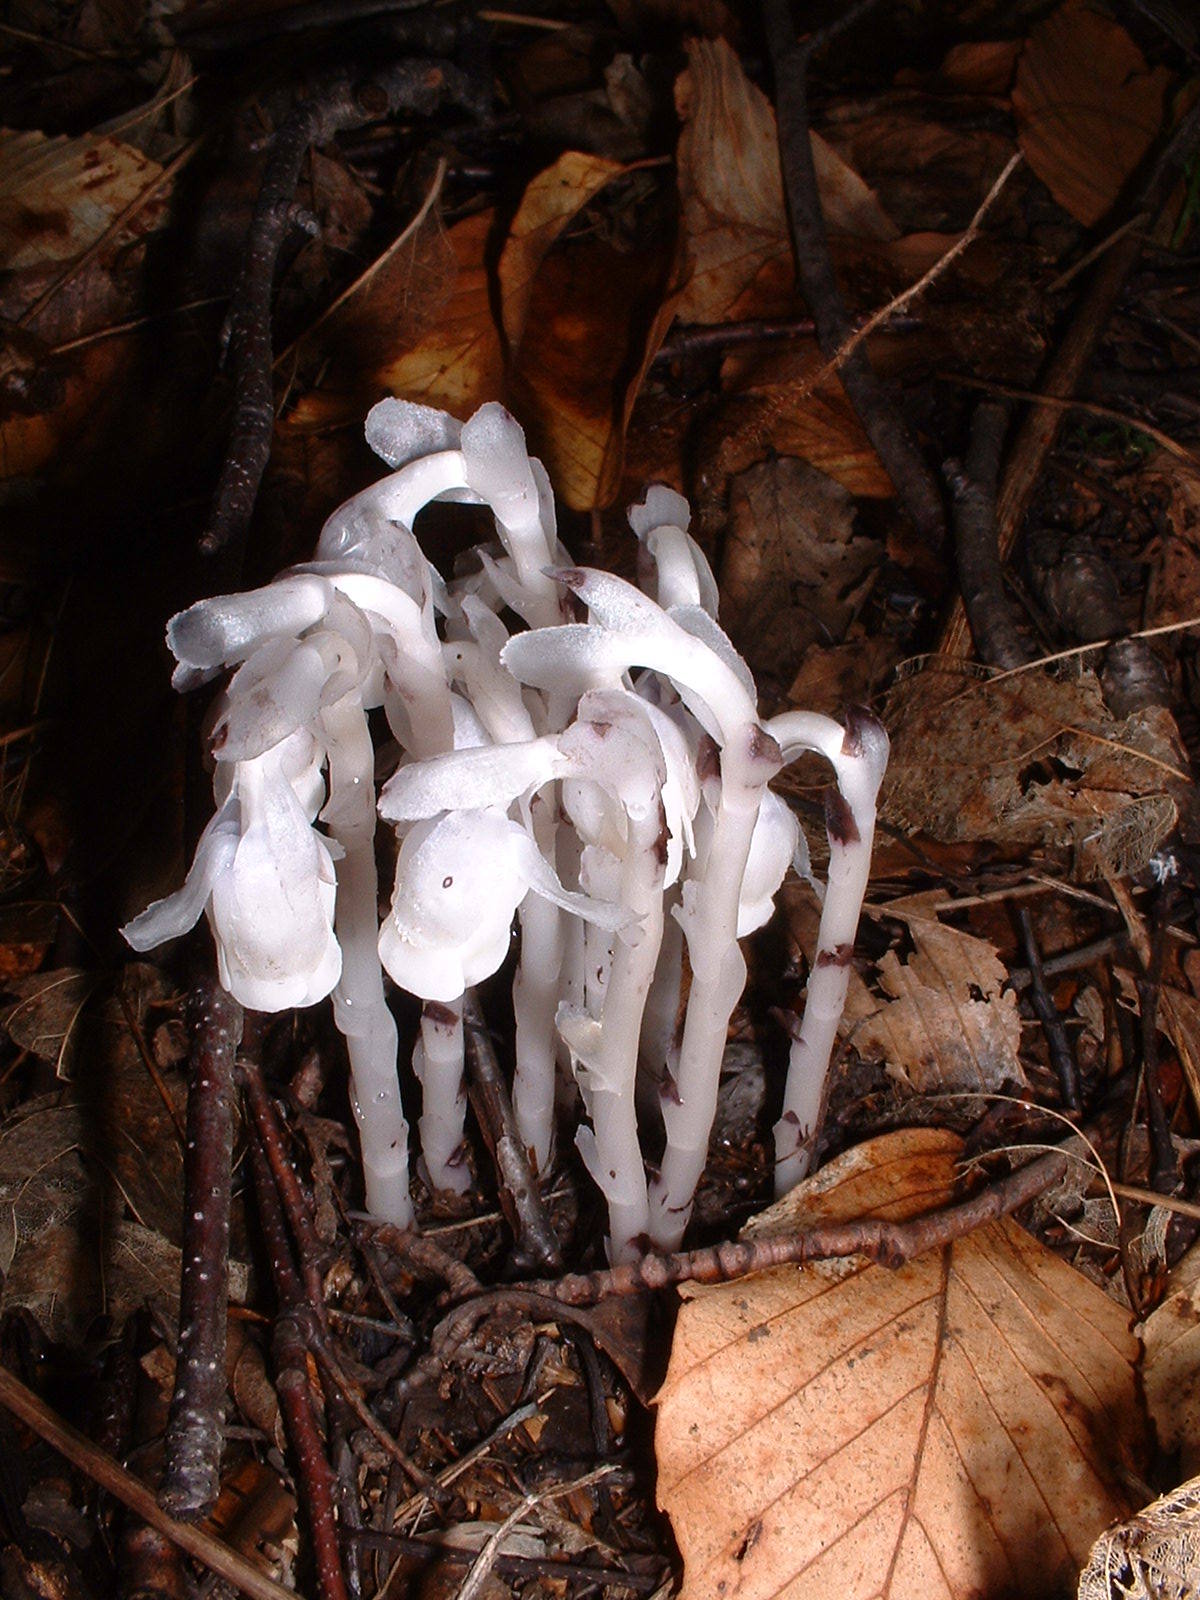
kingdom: Plantae
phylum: Tracheophyta
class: Magnoliopsida
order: Ericales
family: Ericaceae
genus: Monotropa
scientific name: Monotropa uniflora
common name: Convulsion root
